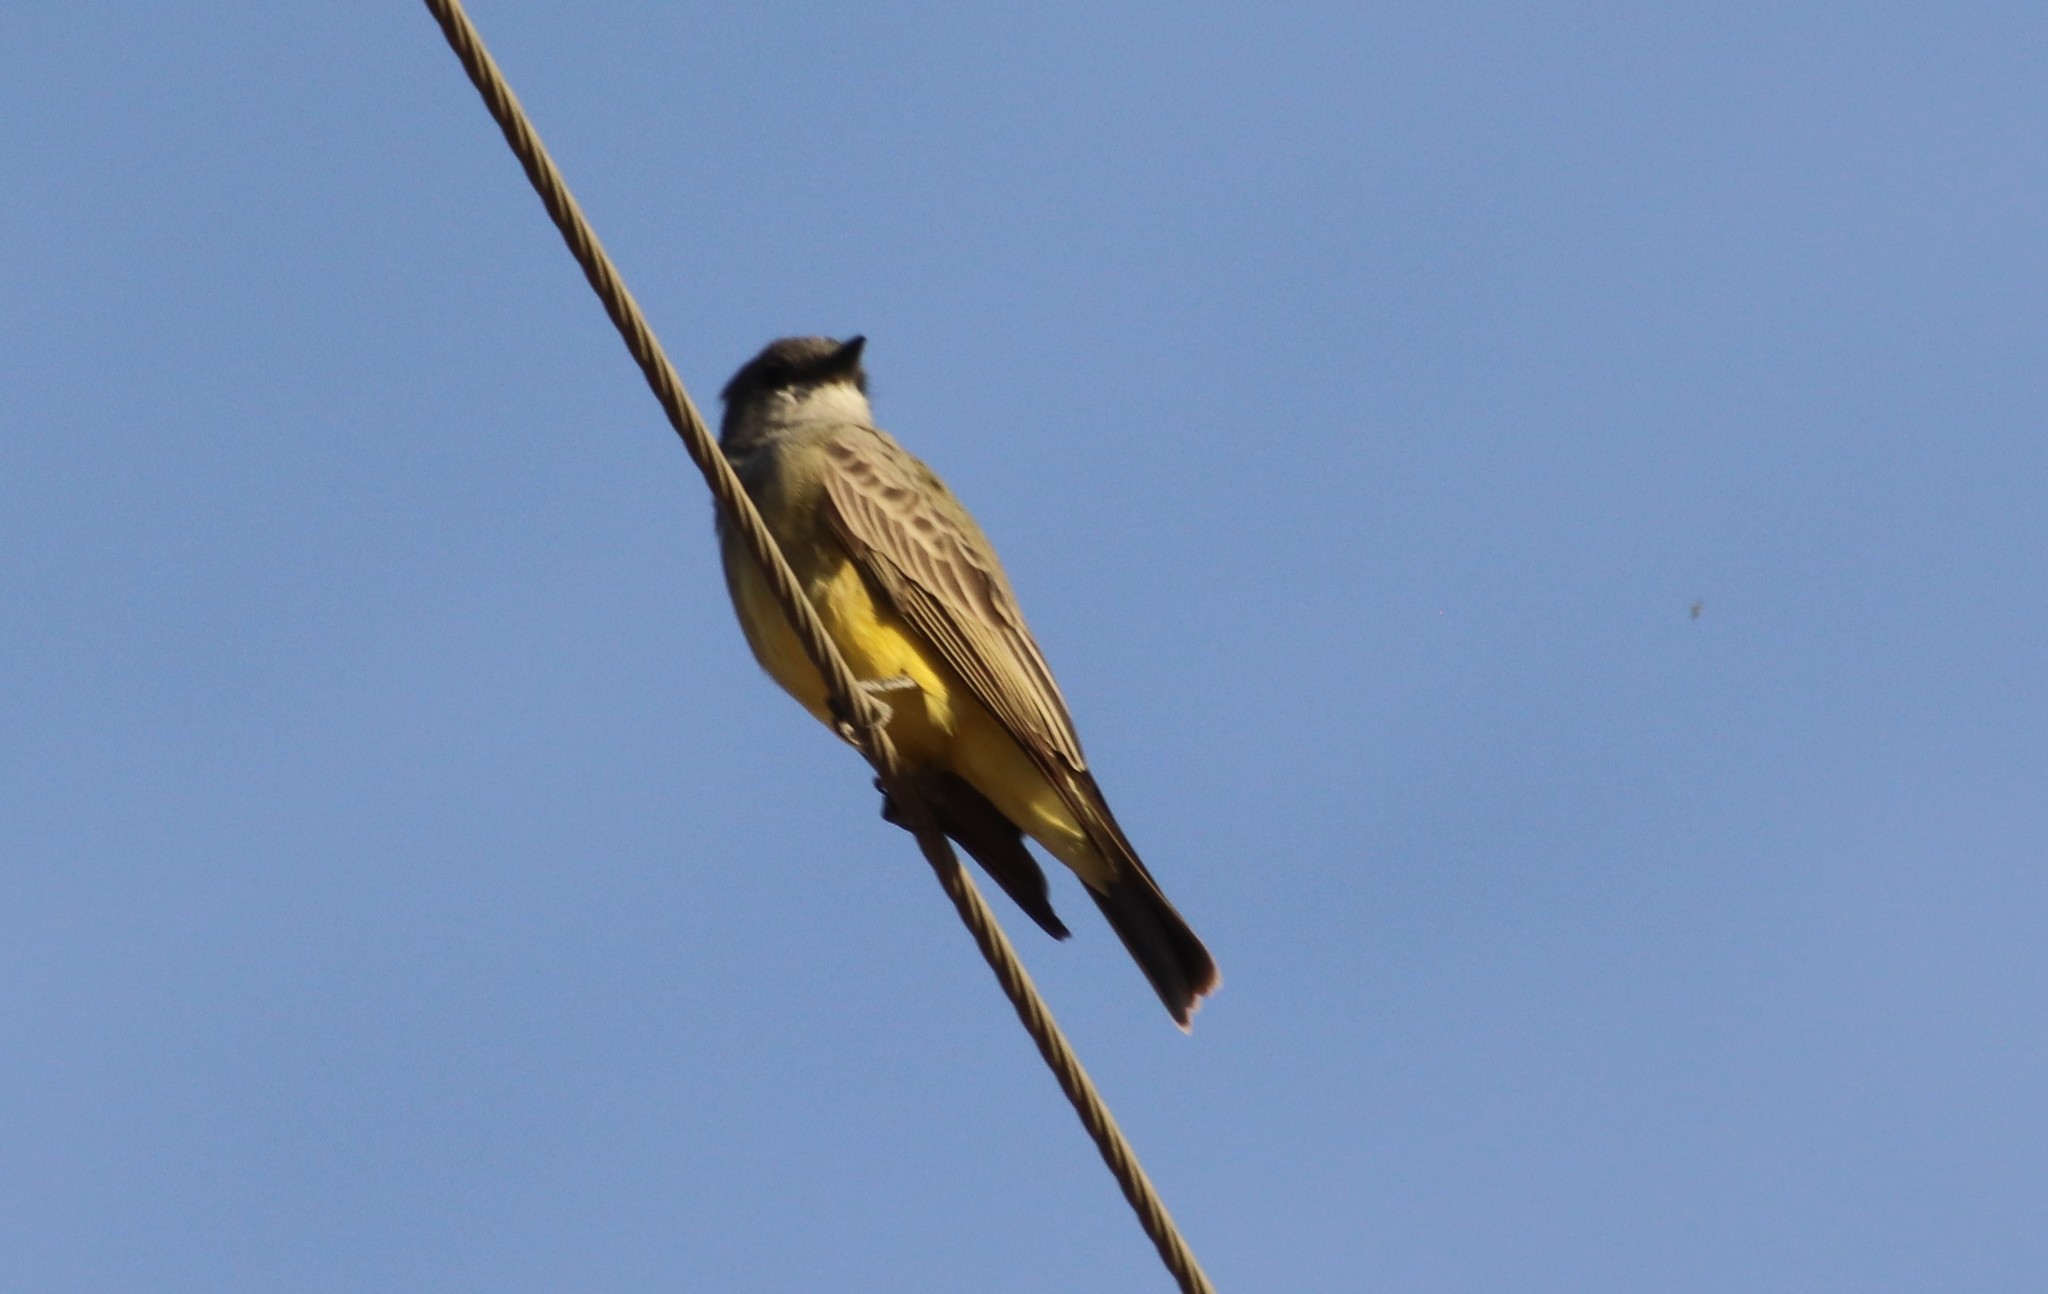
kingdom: Animalia
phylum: Chordata
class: Aves
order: Passeriformes
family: Tyrannidae
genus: Tyrannus
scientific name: Tyrannus vociferans
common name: Cassin's kingbird
